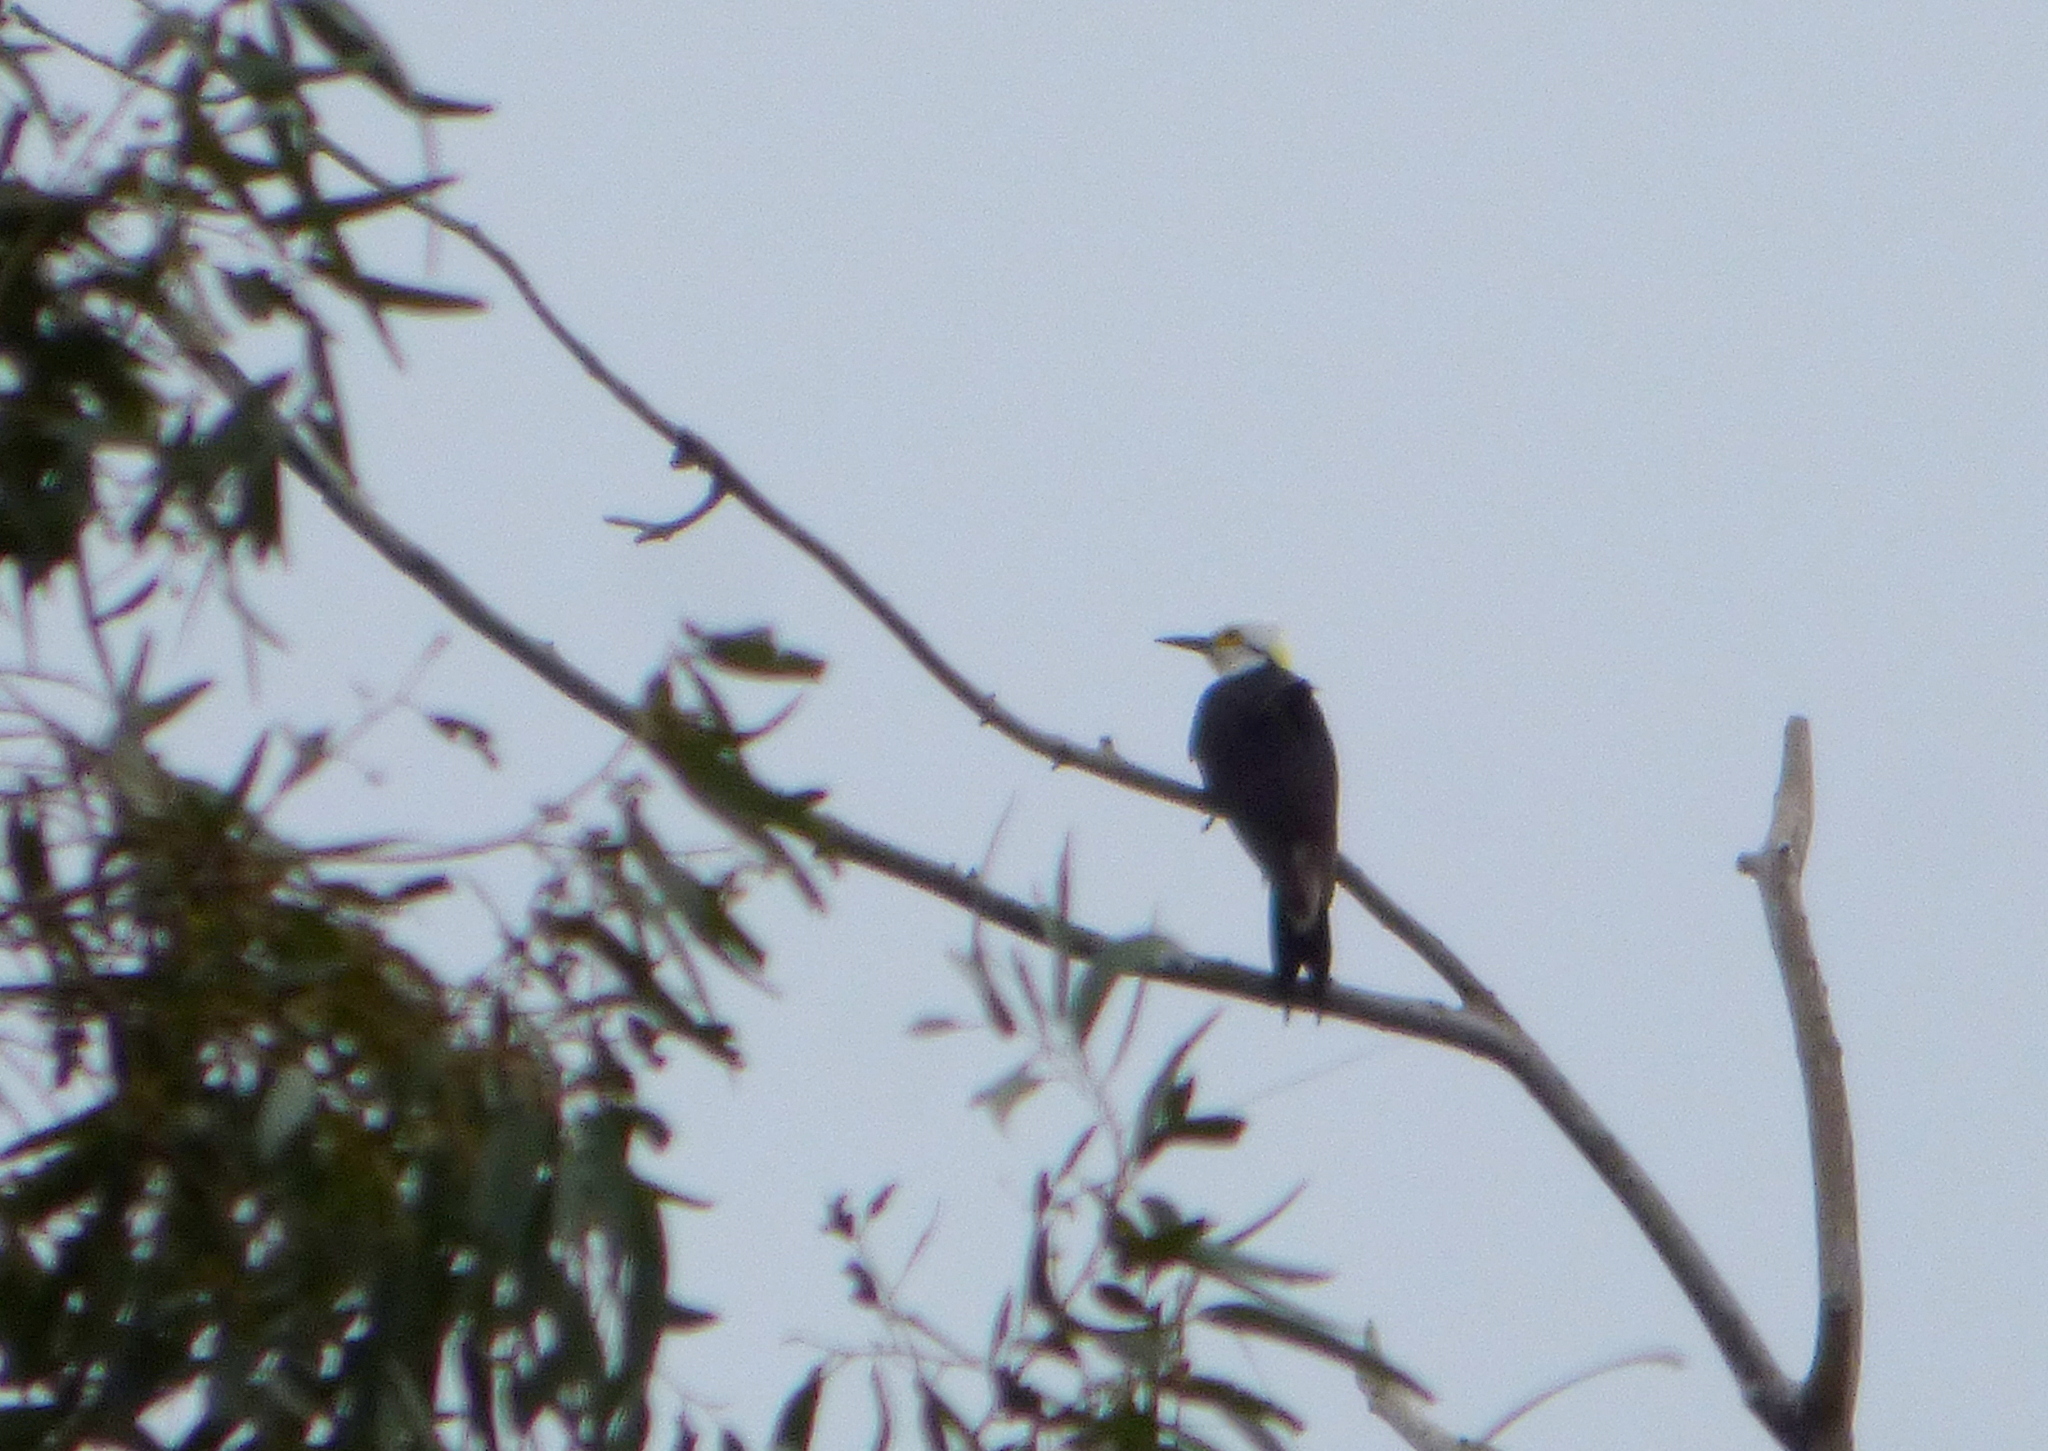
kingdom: Animalia
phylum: Chordata
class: Aves
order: Piciformes
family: Picidae
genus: Melanerpes
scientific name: Melanerpes candidus
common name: White woodpecker
